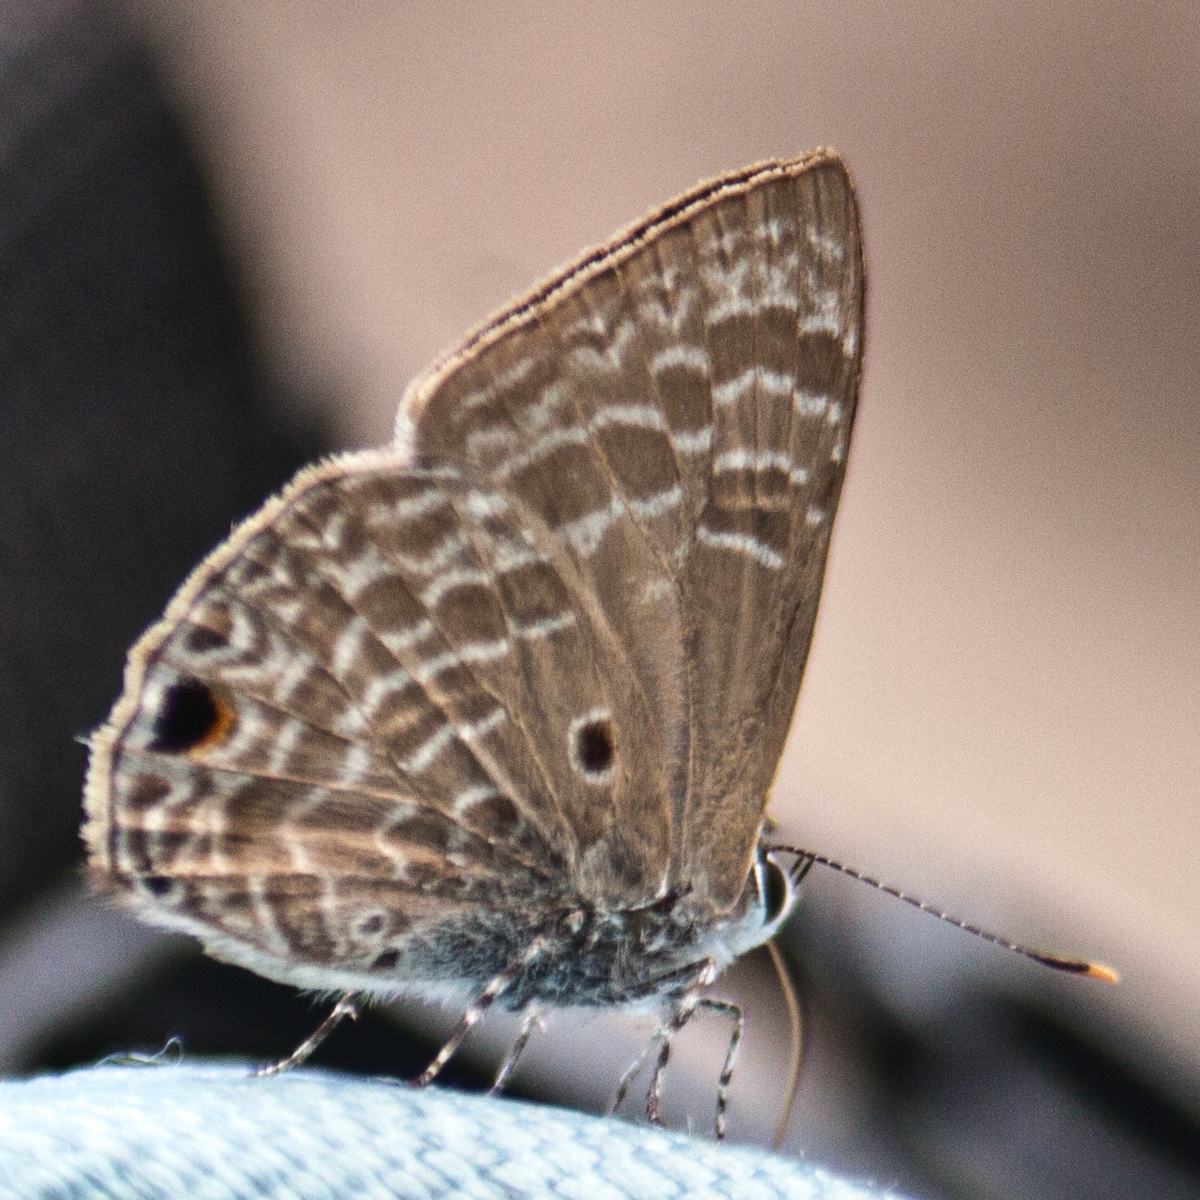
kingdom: Animalia
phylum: Arthropoda
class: Insecta
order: Lepidoptera
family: Lycaenidae
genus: Anthene
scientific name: Anthene lycaenina
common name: Pointed ciliate blue
